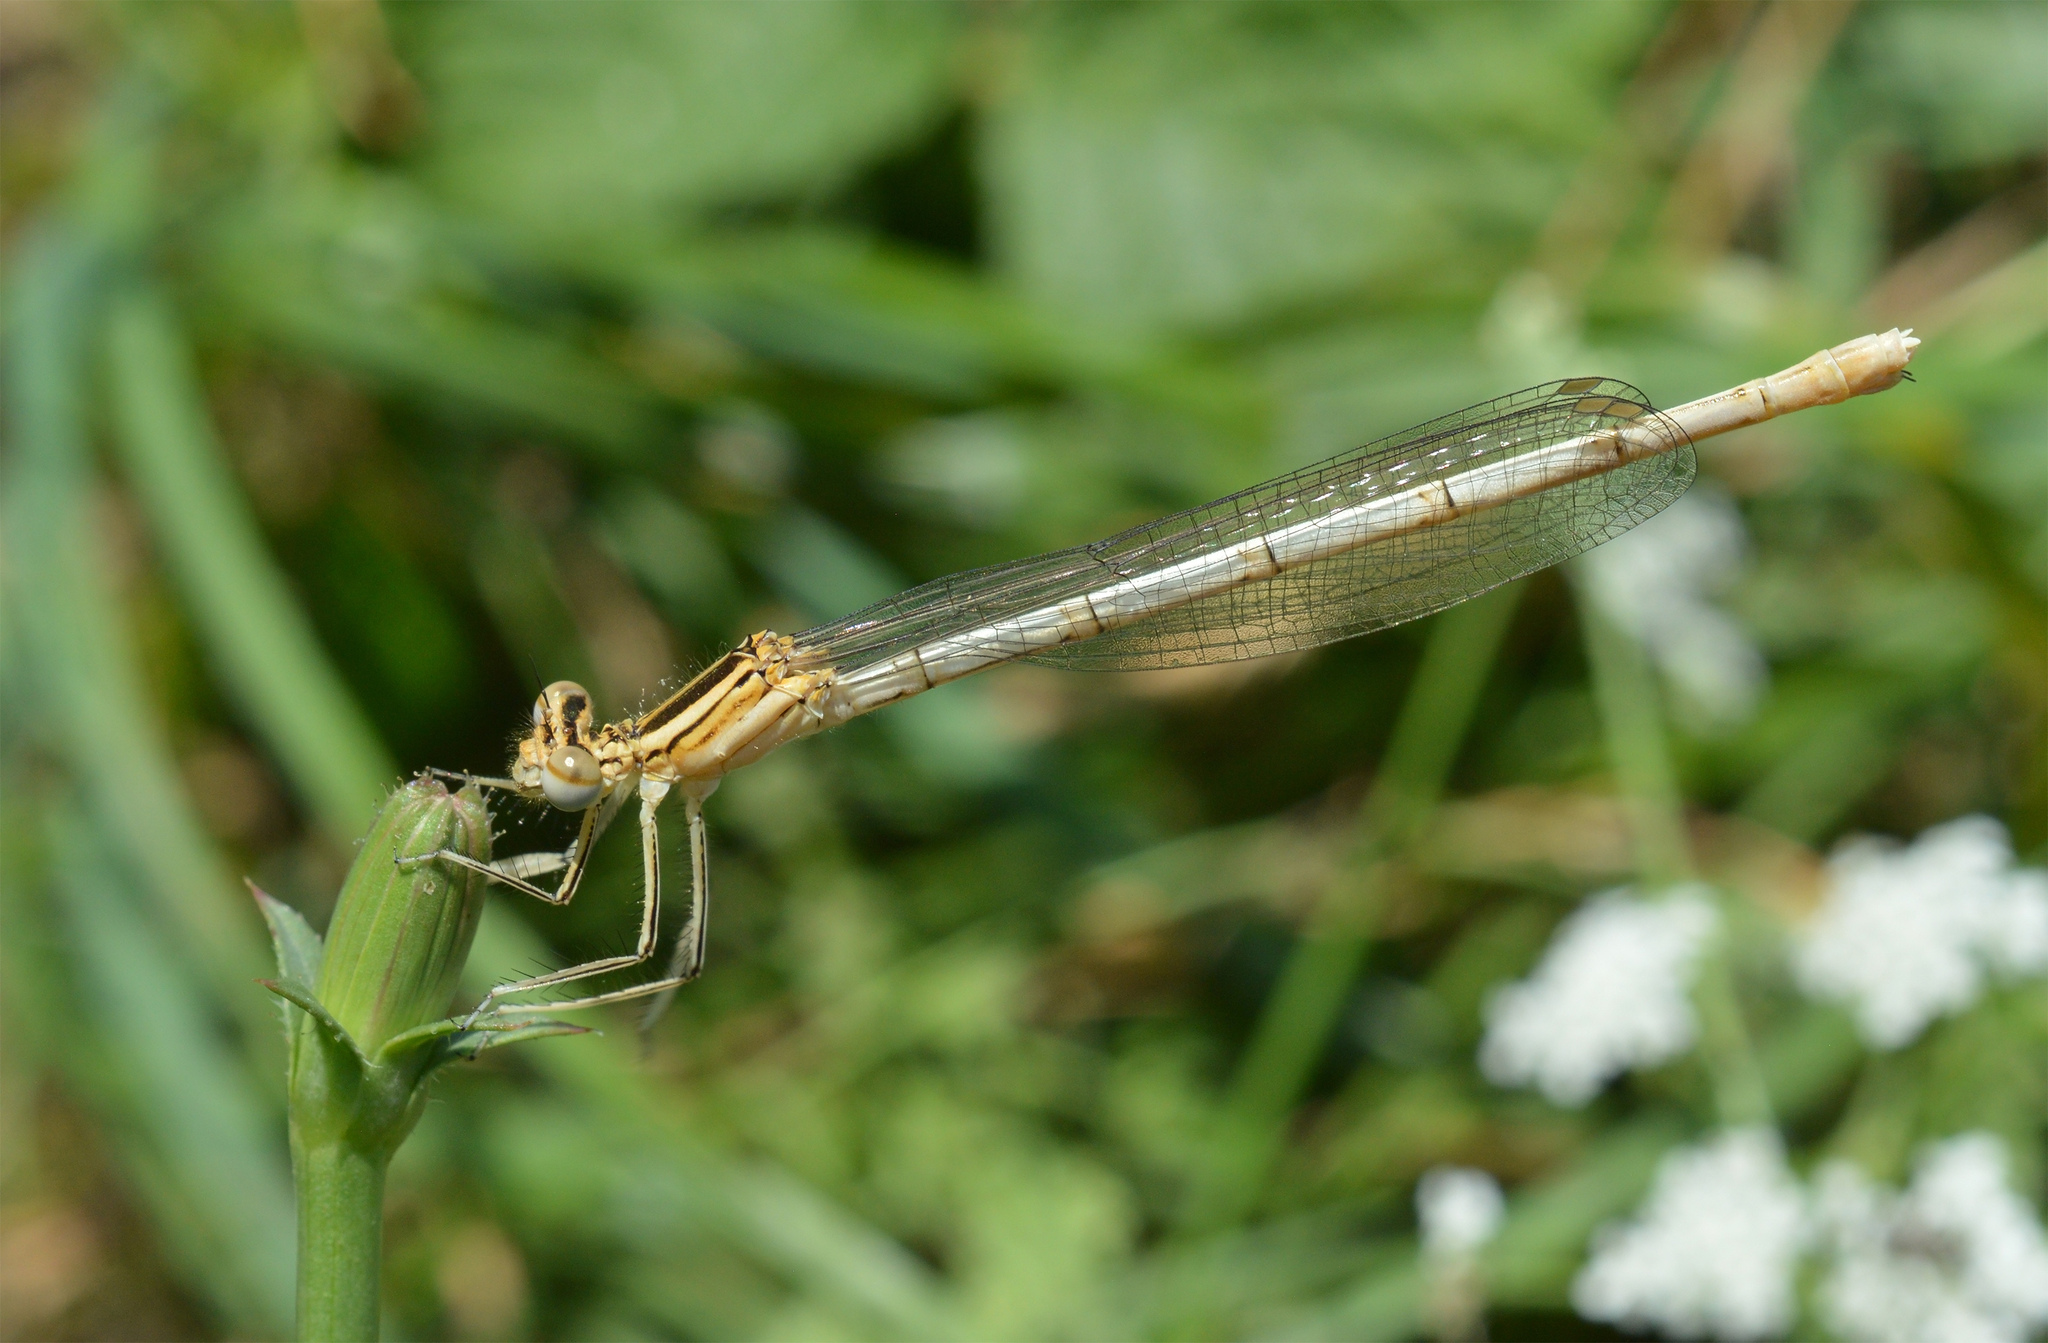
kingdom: Animalia
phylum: Arthropoda
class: Insecta
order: Odonata
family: Platycnemididae
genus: Platycnemis
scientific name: Platycnemis pennipes
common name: White-legged damselfly
